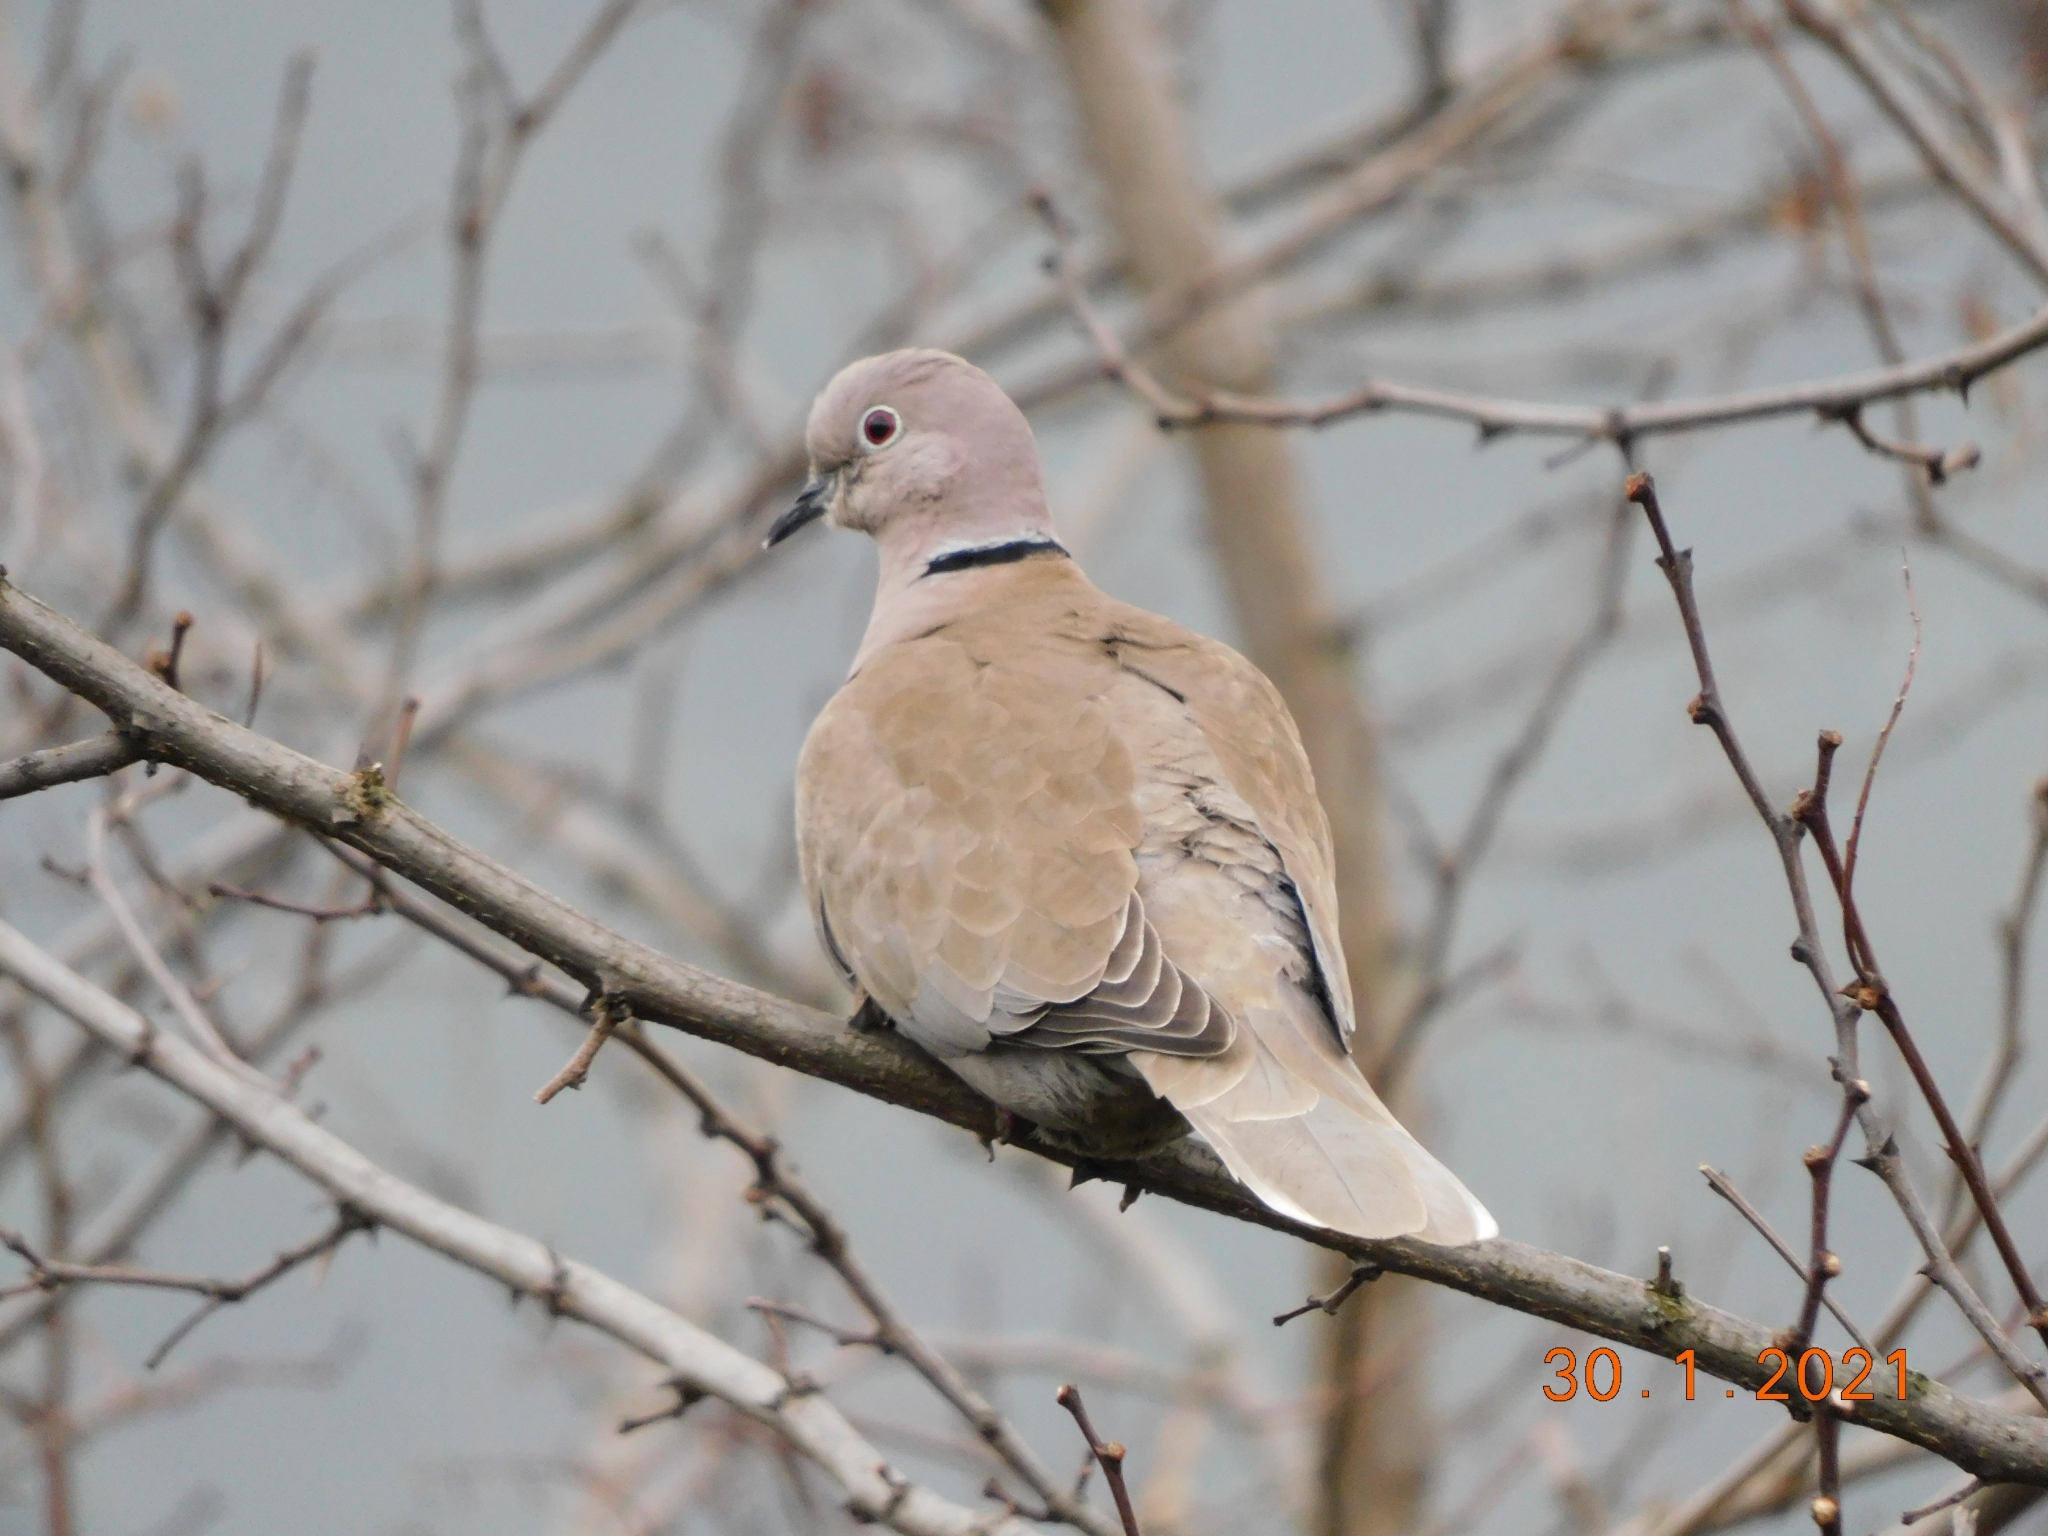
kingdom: Animalia
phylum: Chordata
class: Aves
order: Columbiformes
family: Columbidae
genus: Streptopelia
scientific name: Streptopelia decaocto
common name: Eurasian collared dove
